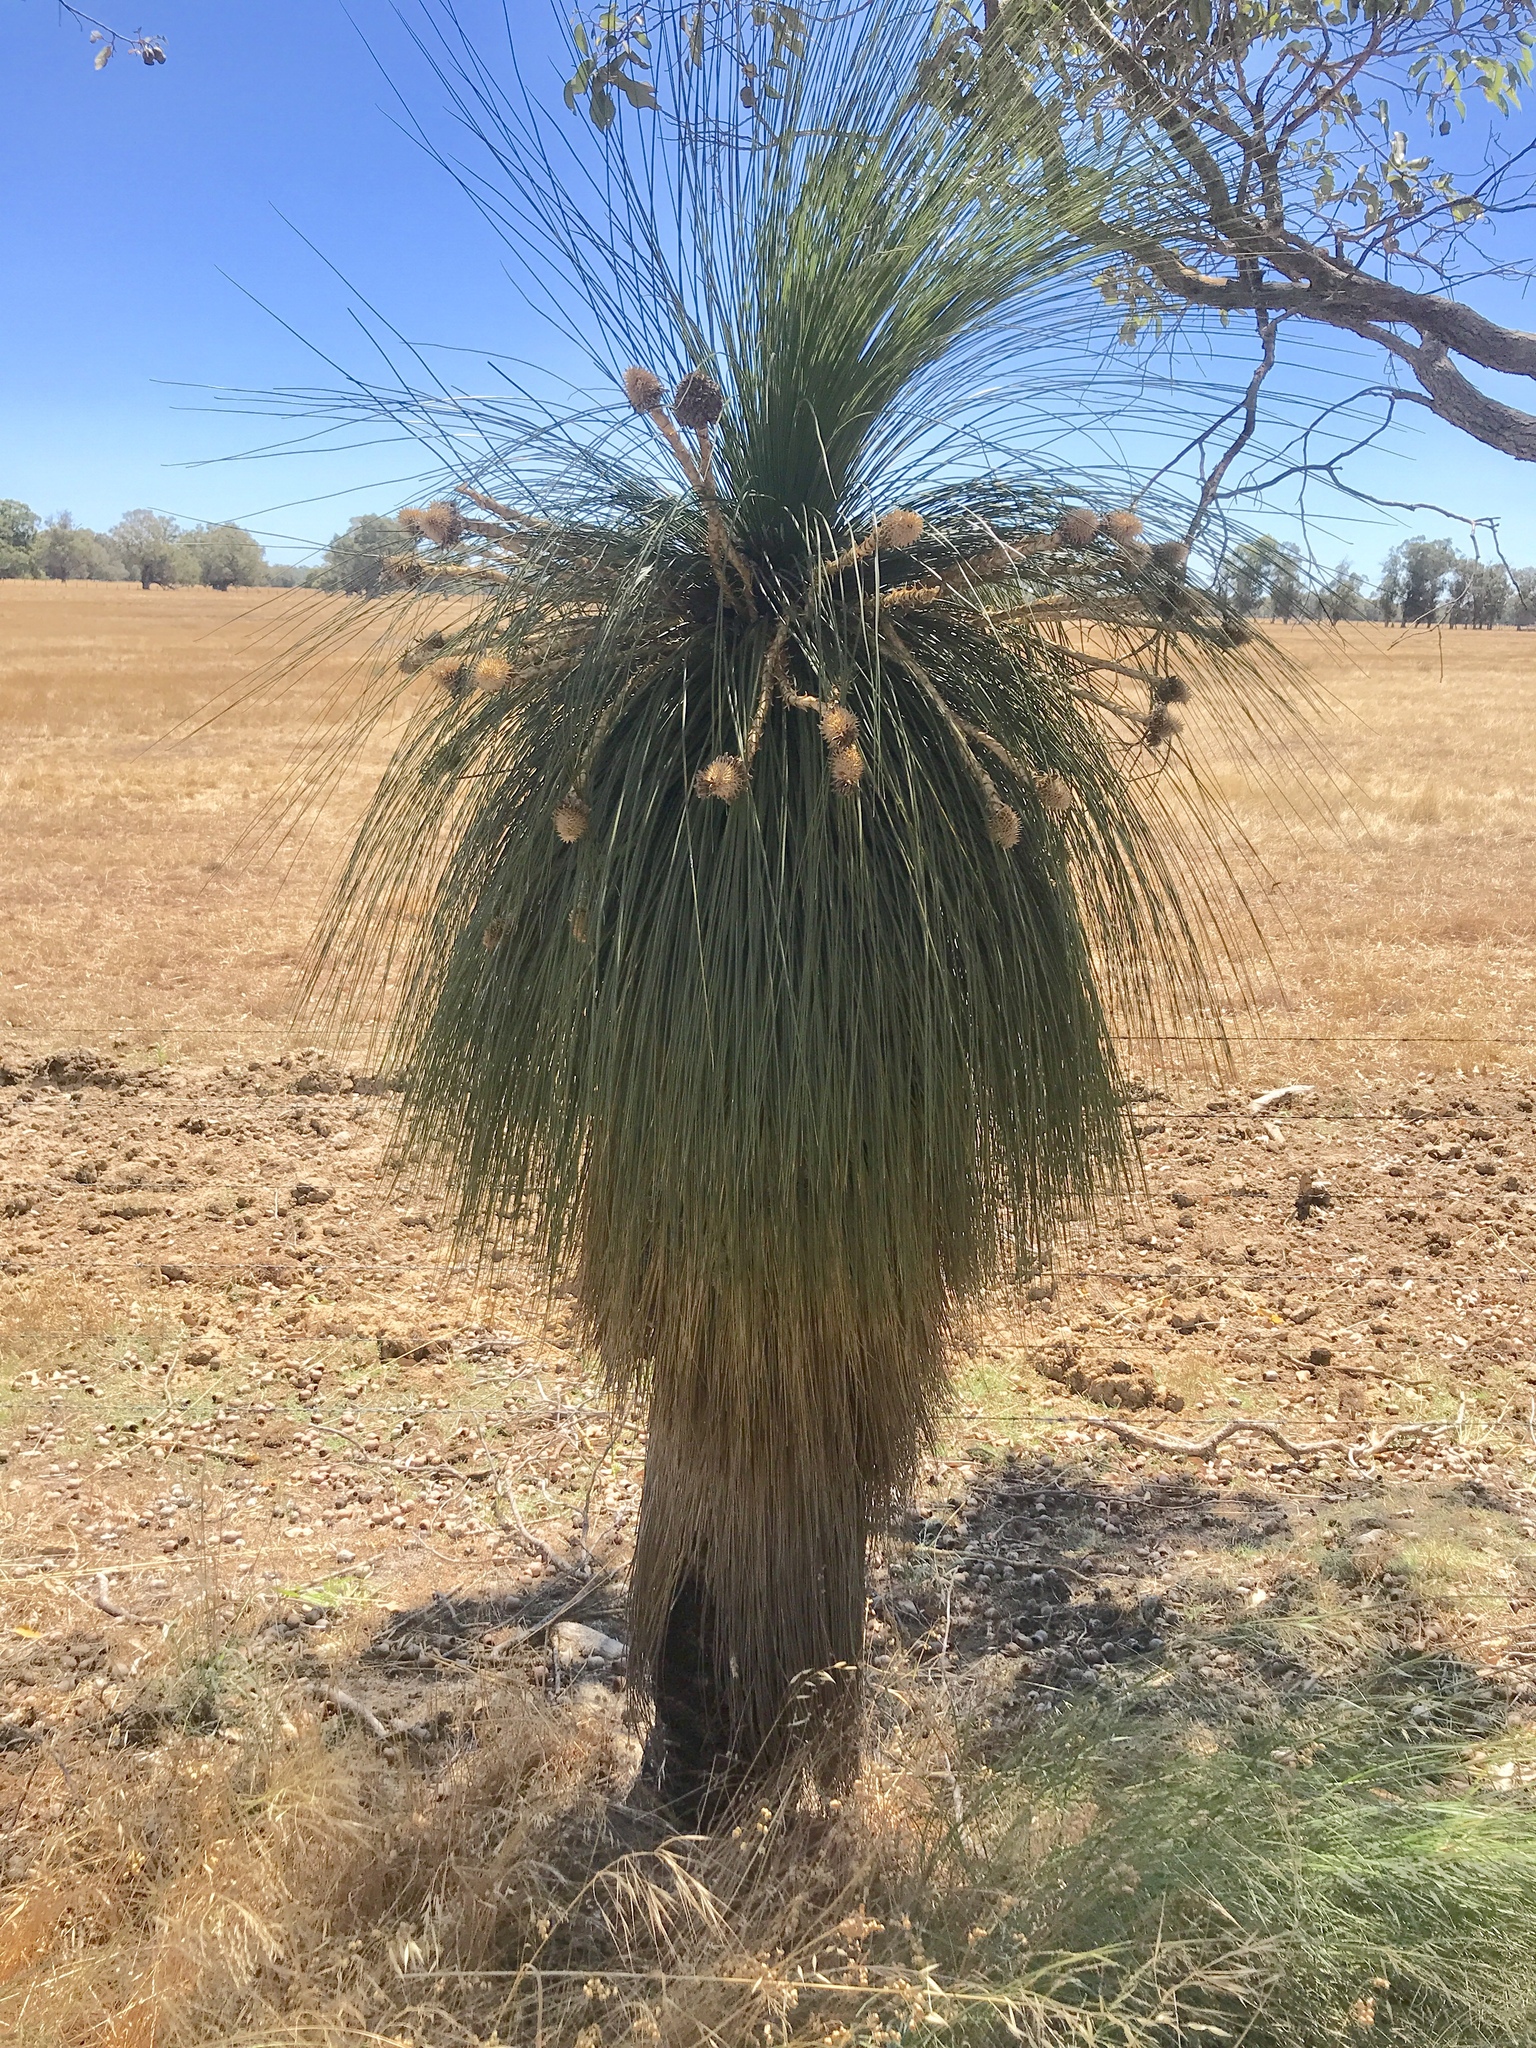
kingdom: Plantae
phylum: Tracheophyta
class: Liliopsida
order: Arecales
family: Dasypogonaceae
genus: Kingia
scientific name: Kingia australis
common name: Black gin
